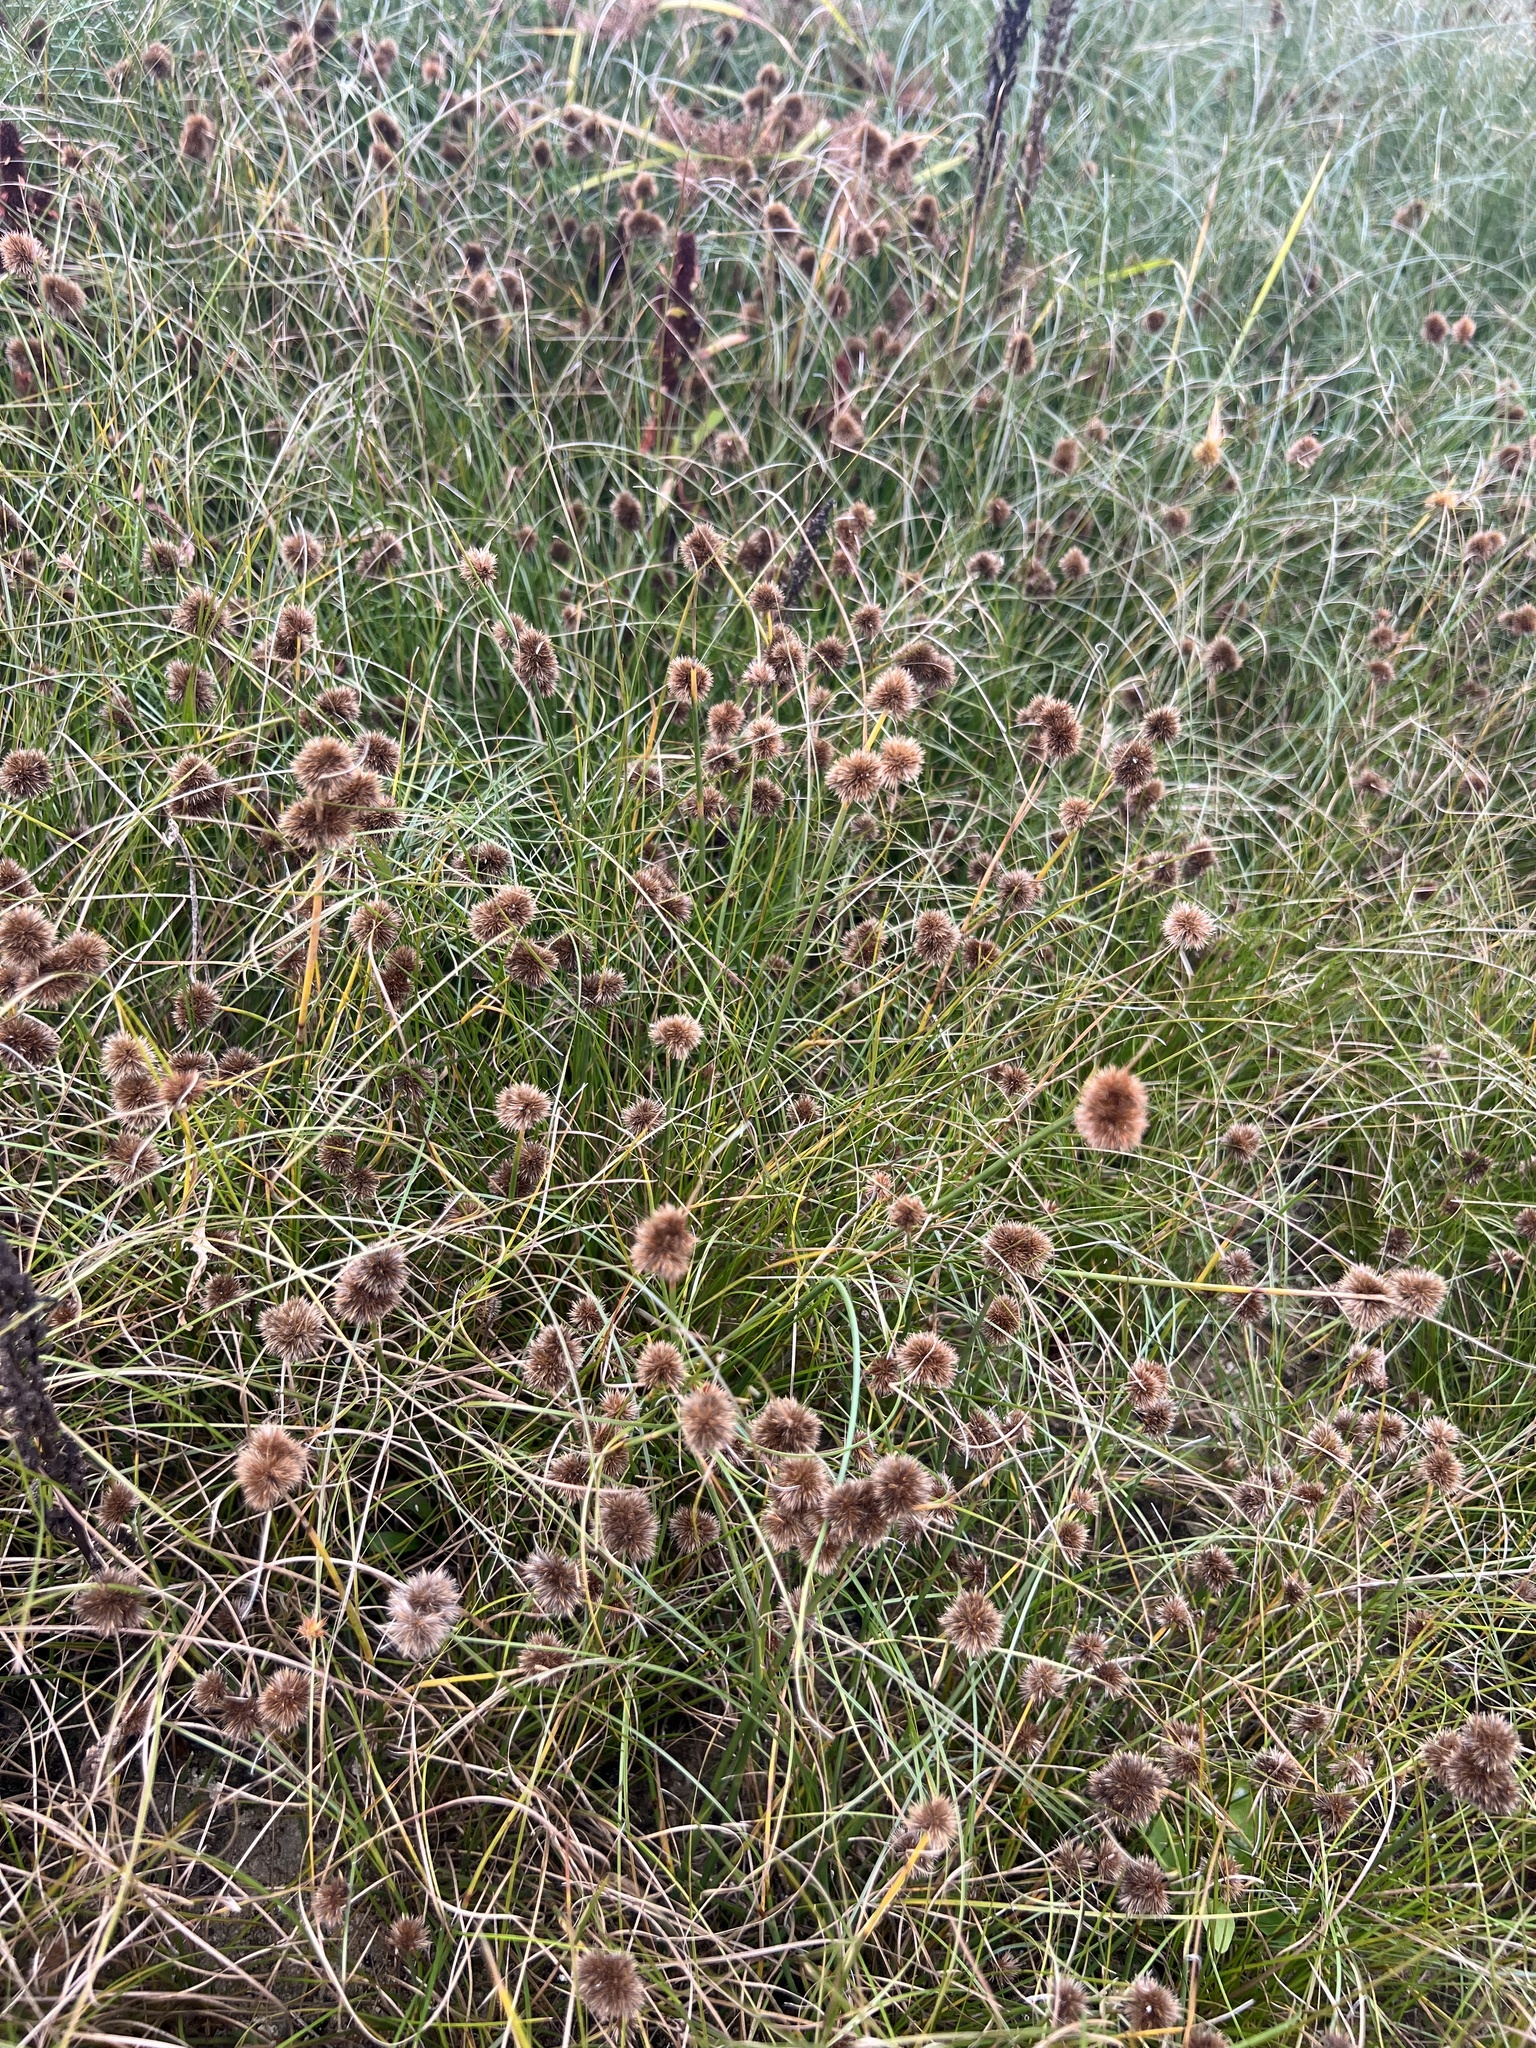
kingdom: Plantae
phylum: Tracheophyta
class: Liliopsida
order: Poales
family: Juncaceae
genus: Juncus
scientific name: Juncus torreyi
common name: Torrey's rush
